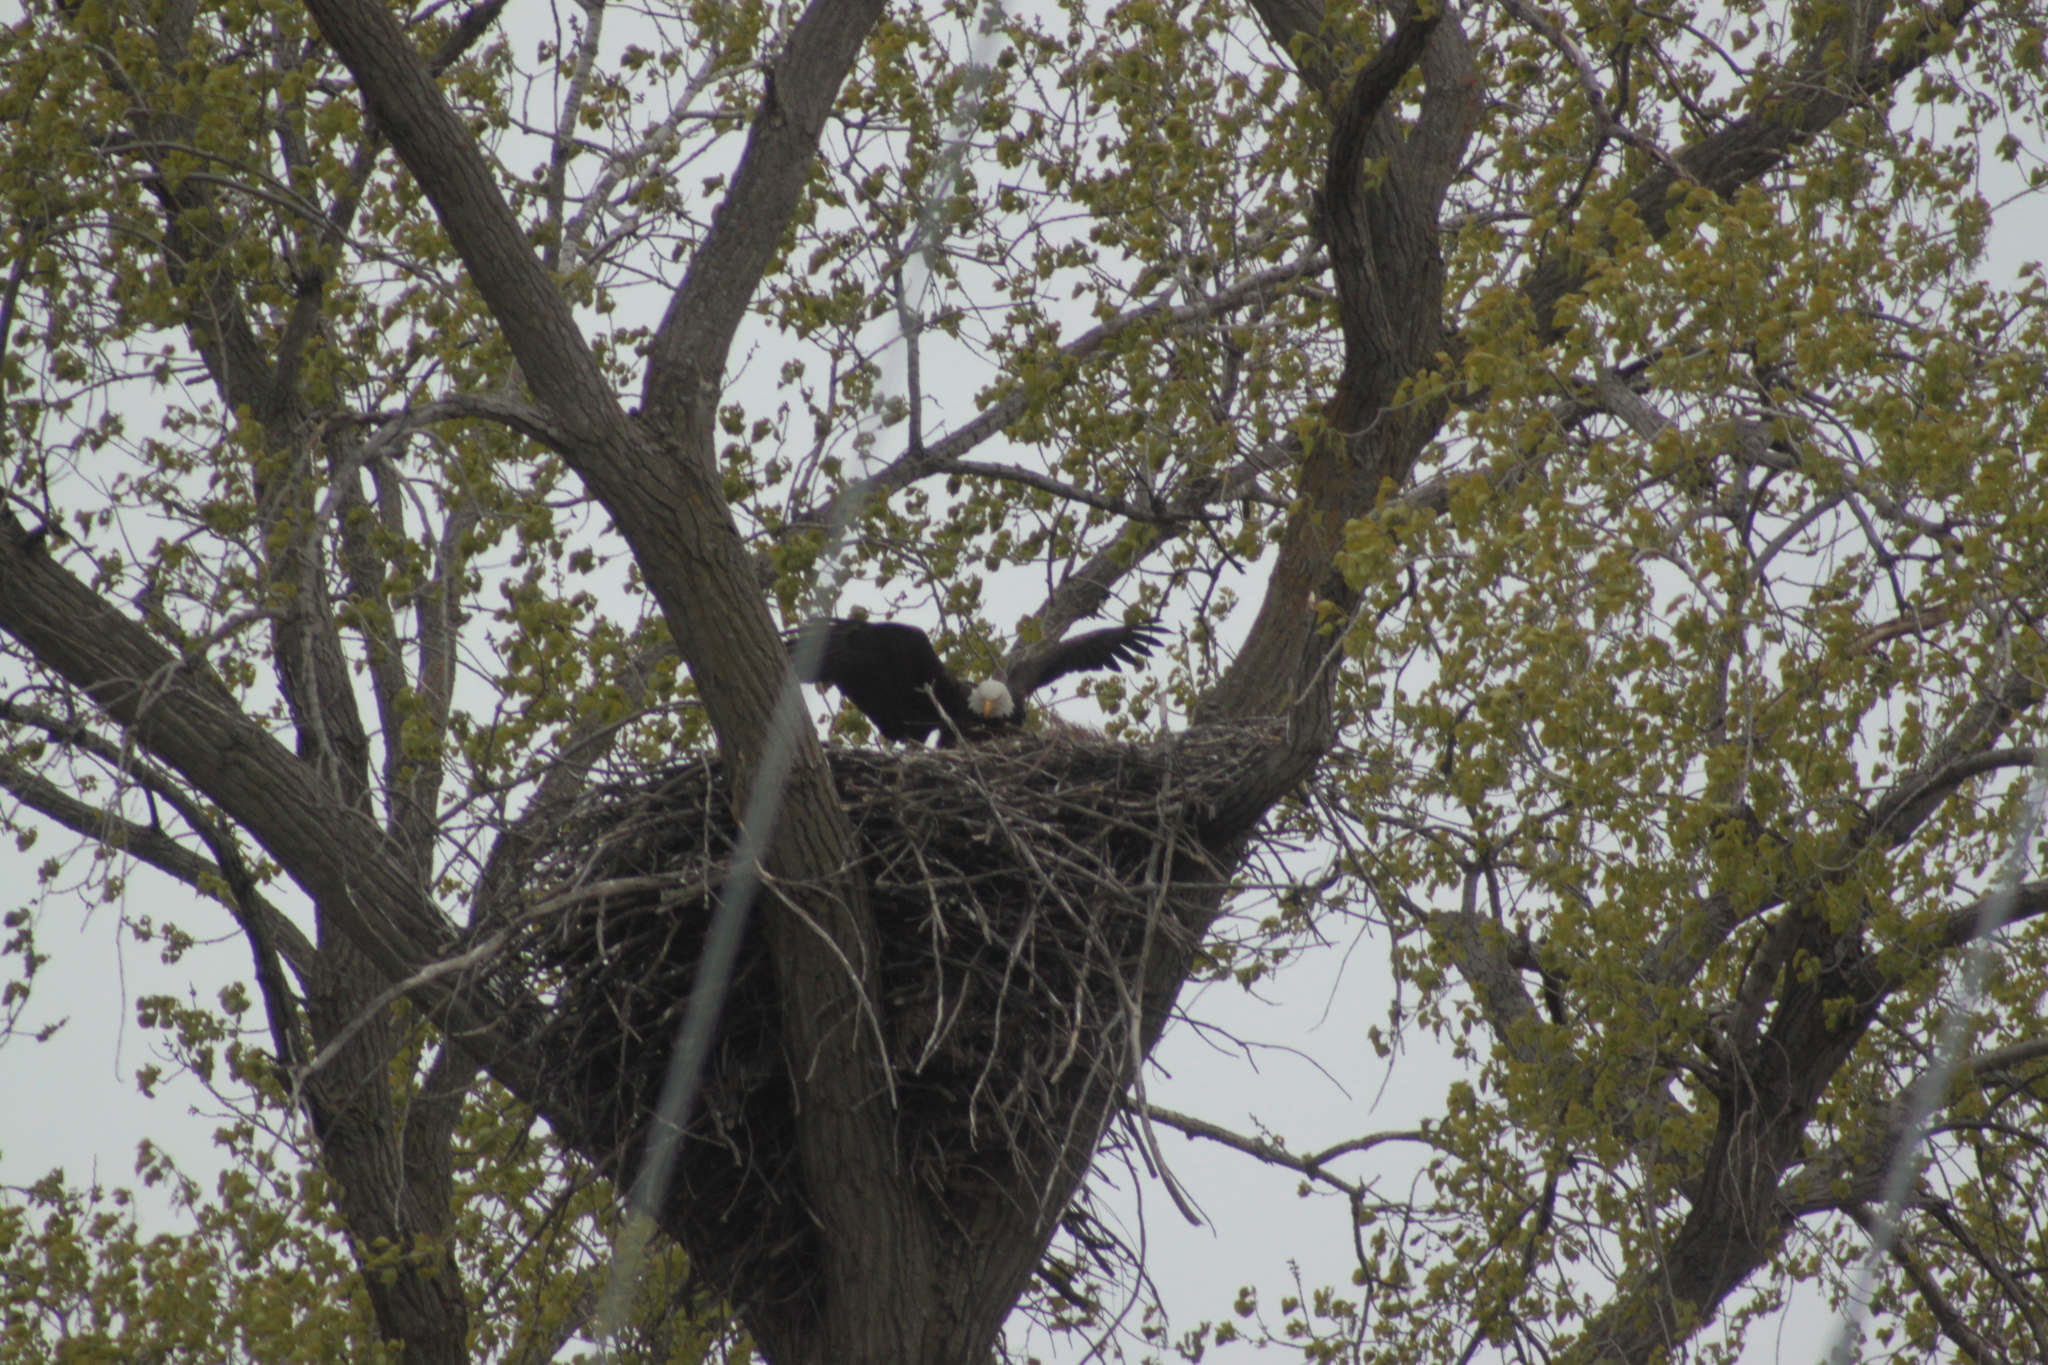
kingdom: Animalia
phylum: Chordata
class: Aves
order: Accipitriformes
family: Accipitridae
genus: Haliaeetus
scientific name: Haliaeetus leucocephalus
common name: Bald eagle
